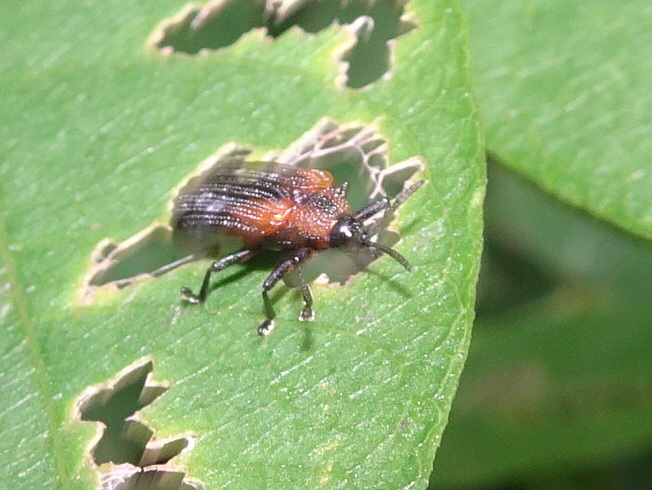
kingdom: Animalia
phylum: Arthropoda
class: Insecta
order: Coleoptera
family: Chrysomelidae
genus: Odontota
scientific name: Odontota scapularis
